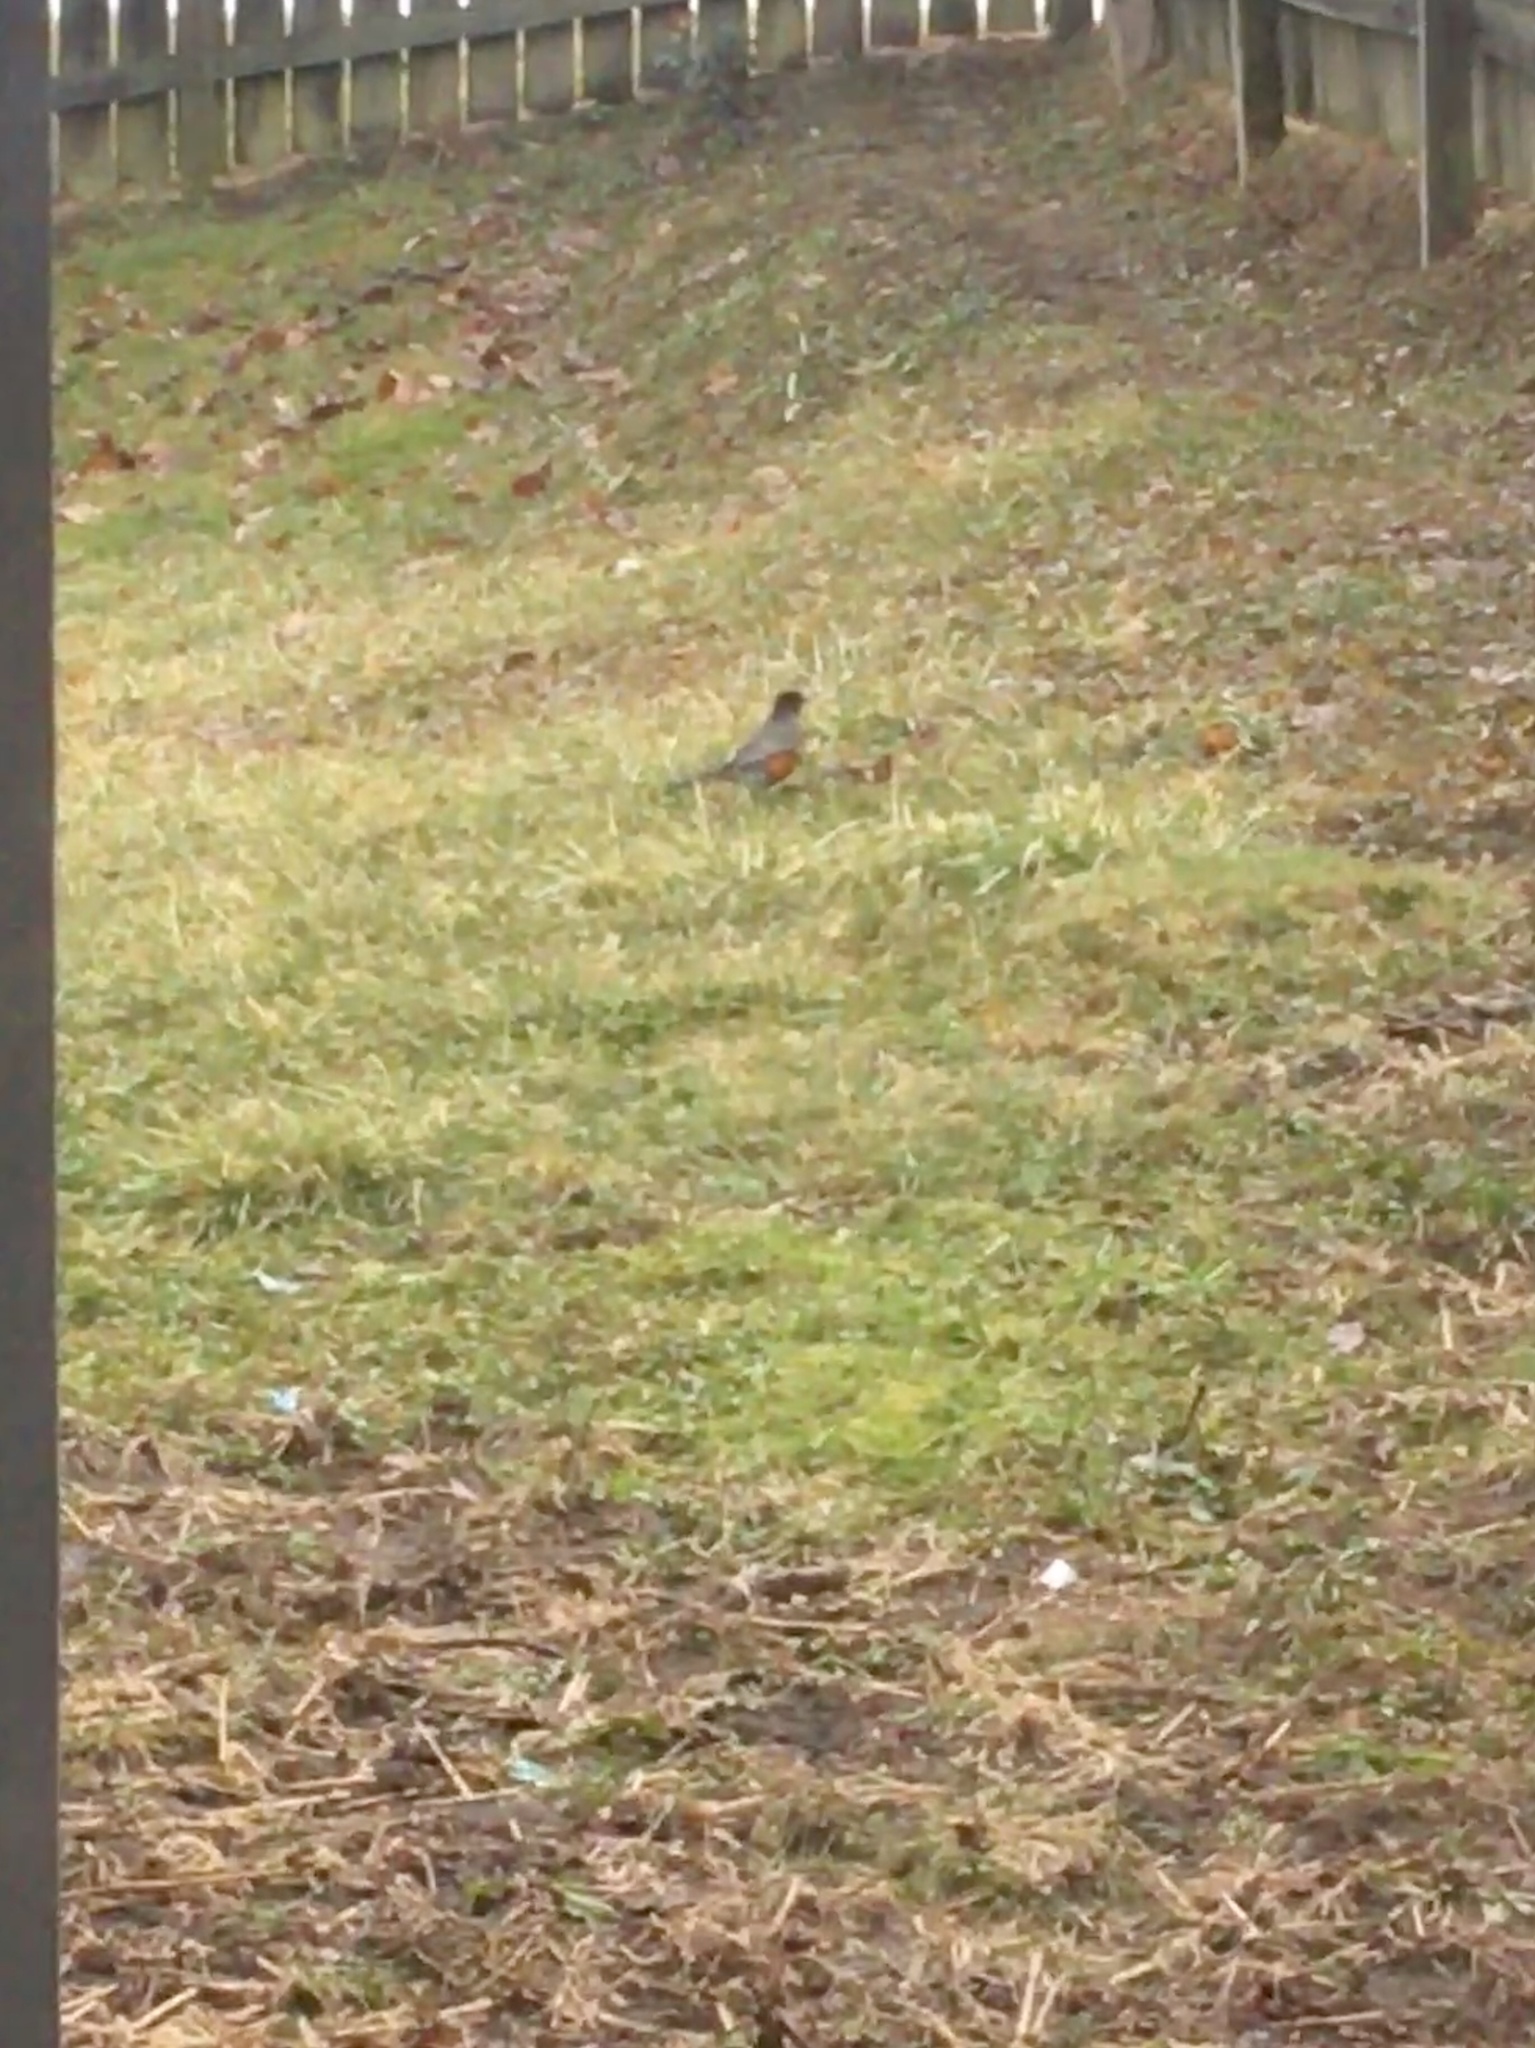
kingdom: Animalia
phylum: Chordata
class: Aves
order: Passeriformes
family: Turdidae
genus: Turdus
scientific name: Turdus migratorius
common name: American robin
